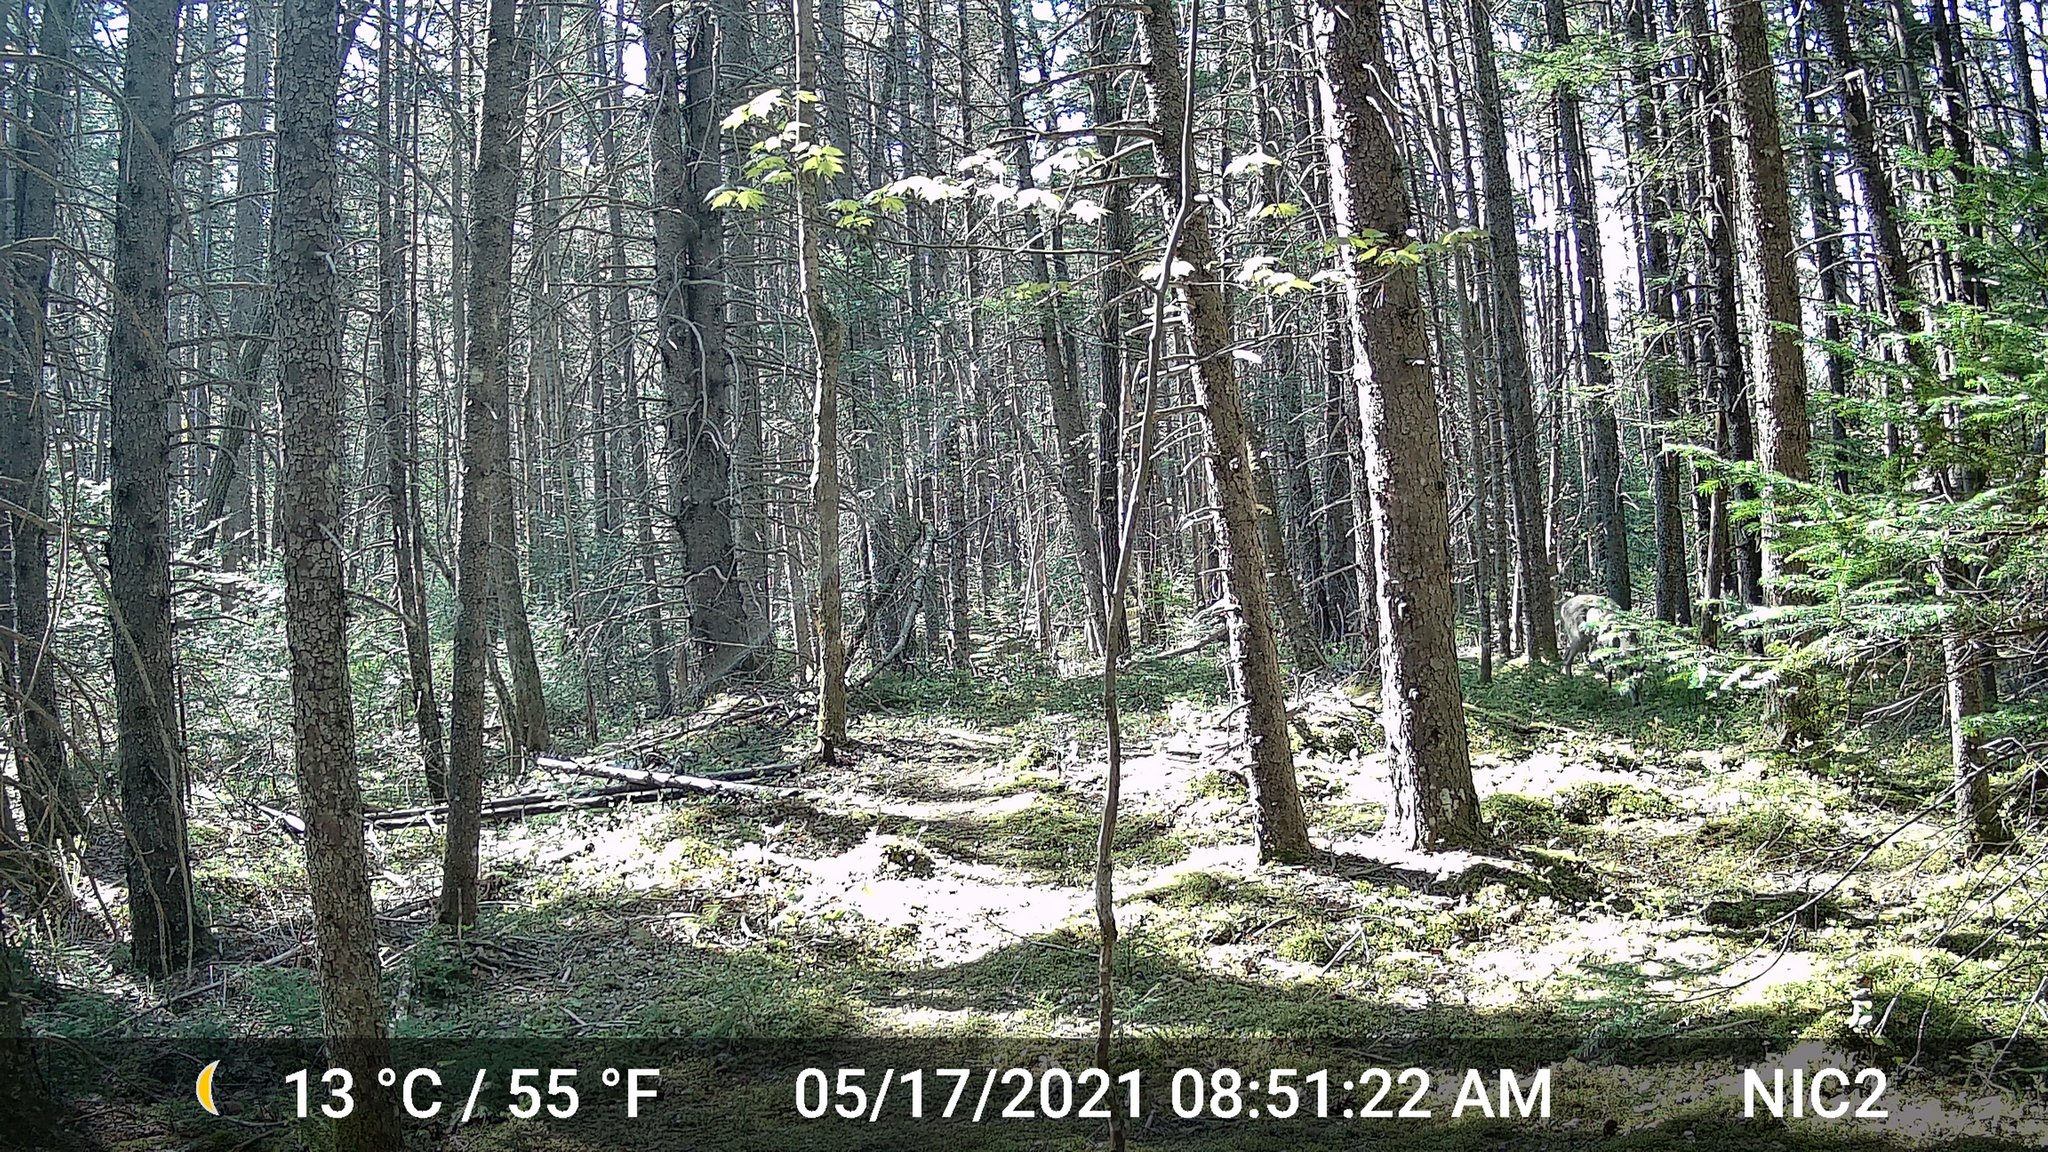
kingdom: Animalia
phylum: Chordata
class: Mammalia
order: Artiodactyla
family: Cervidae
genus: Odocoileus
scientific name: Odocoileus virginianus
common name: White-tailed deer
